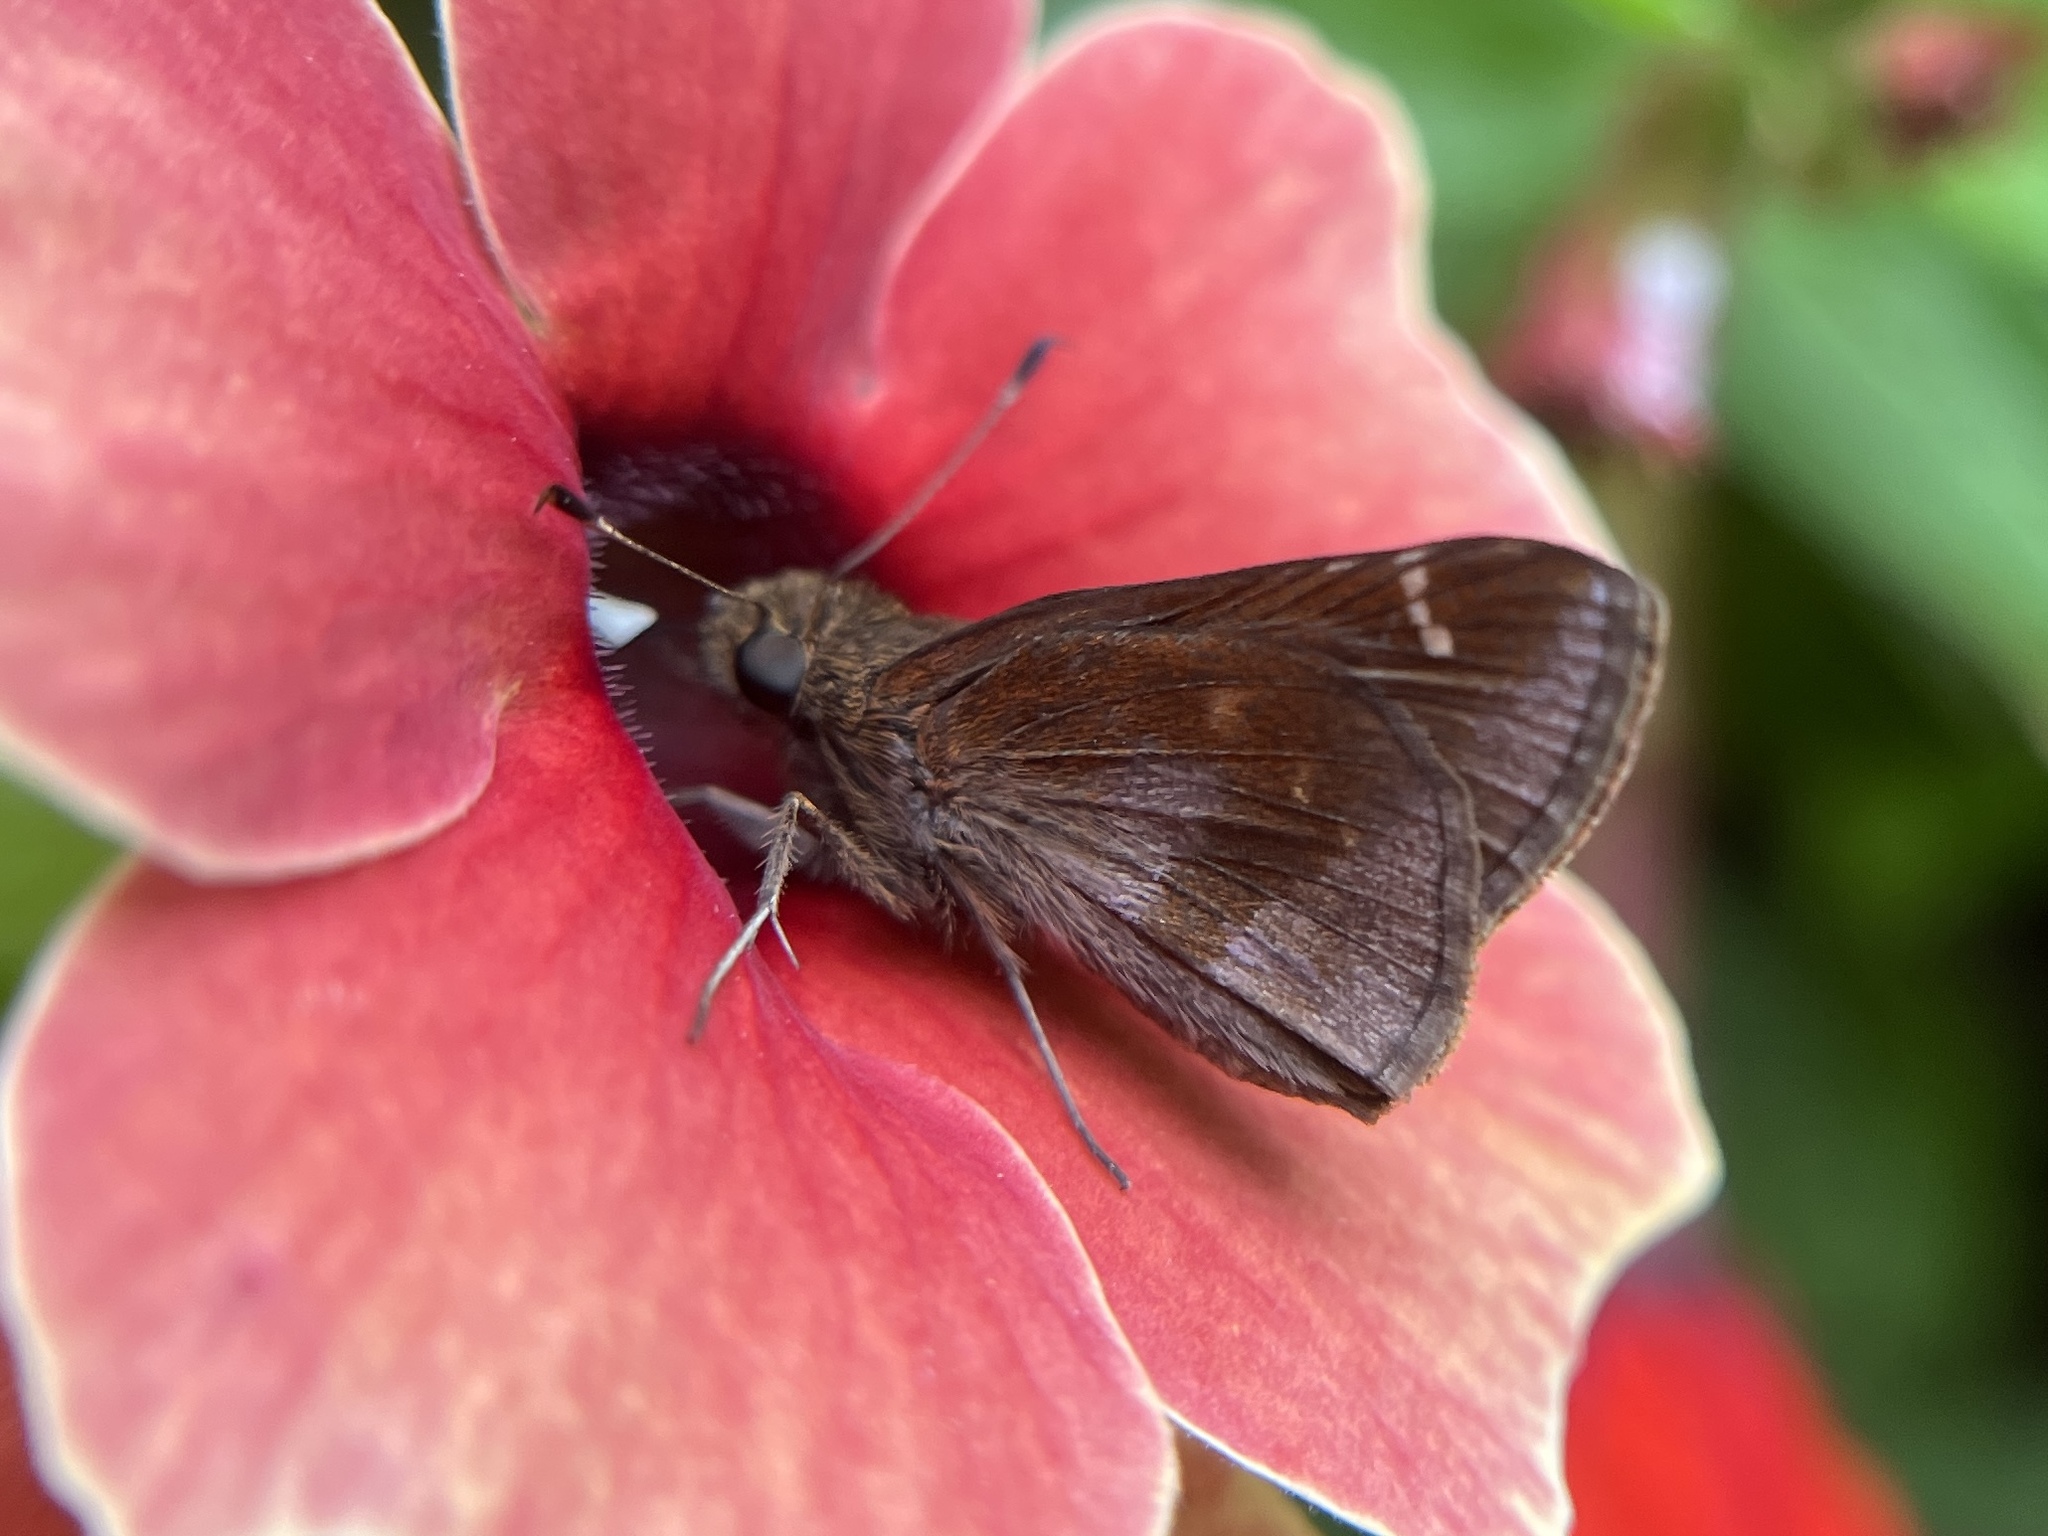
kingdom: Animalia
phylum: Arthropoda
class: Insecta
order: Lepidoptera
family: Hesperiidae
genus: Lerema
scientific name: Lerema accius
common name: Clouded skipper
